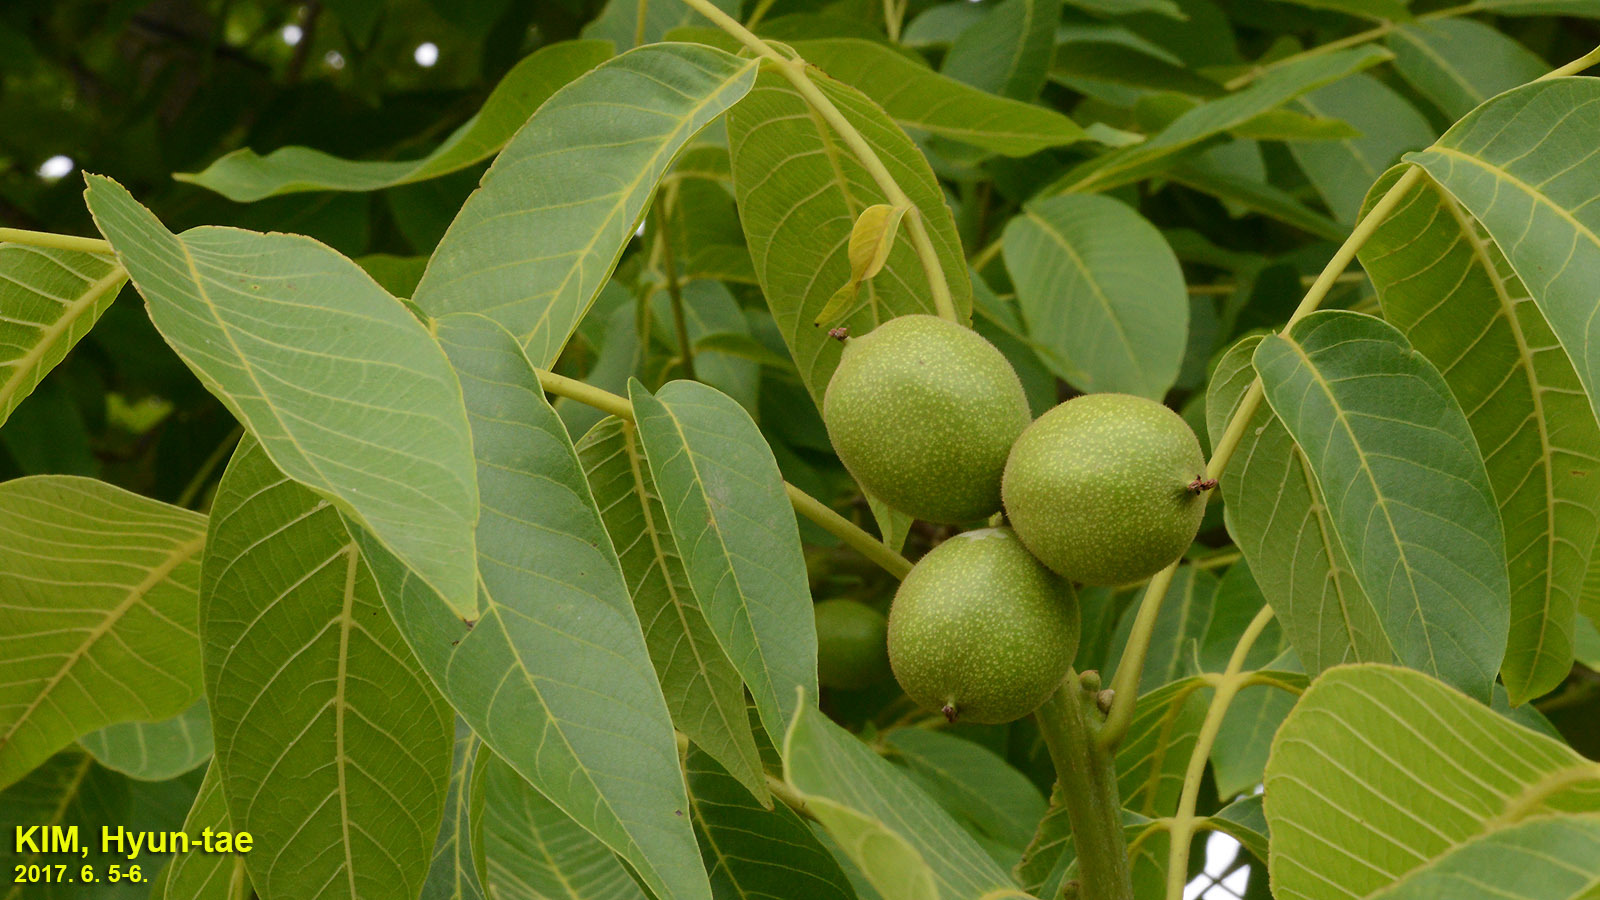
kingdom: Plantae
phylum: Tracheophyta
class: Magnoliopsida
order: Fagales
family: Juglandaceae
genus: Juglans
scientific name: Juglans regia
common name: Walnut
